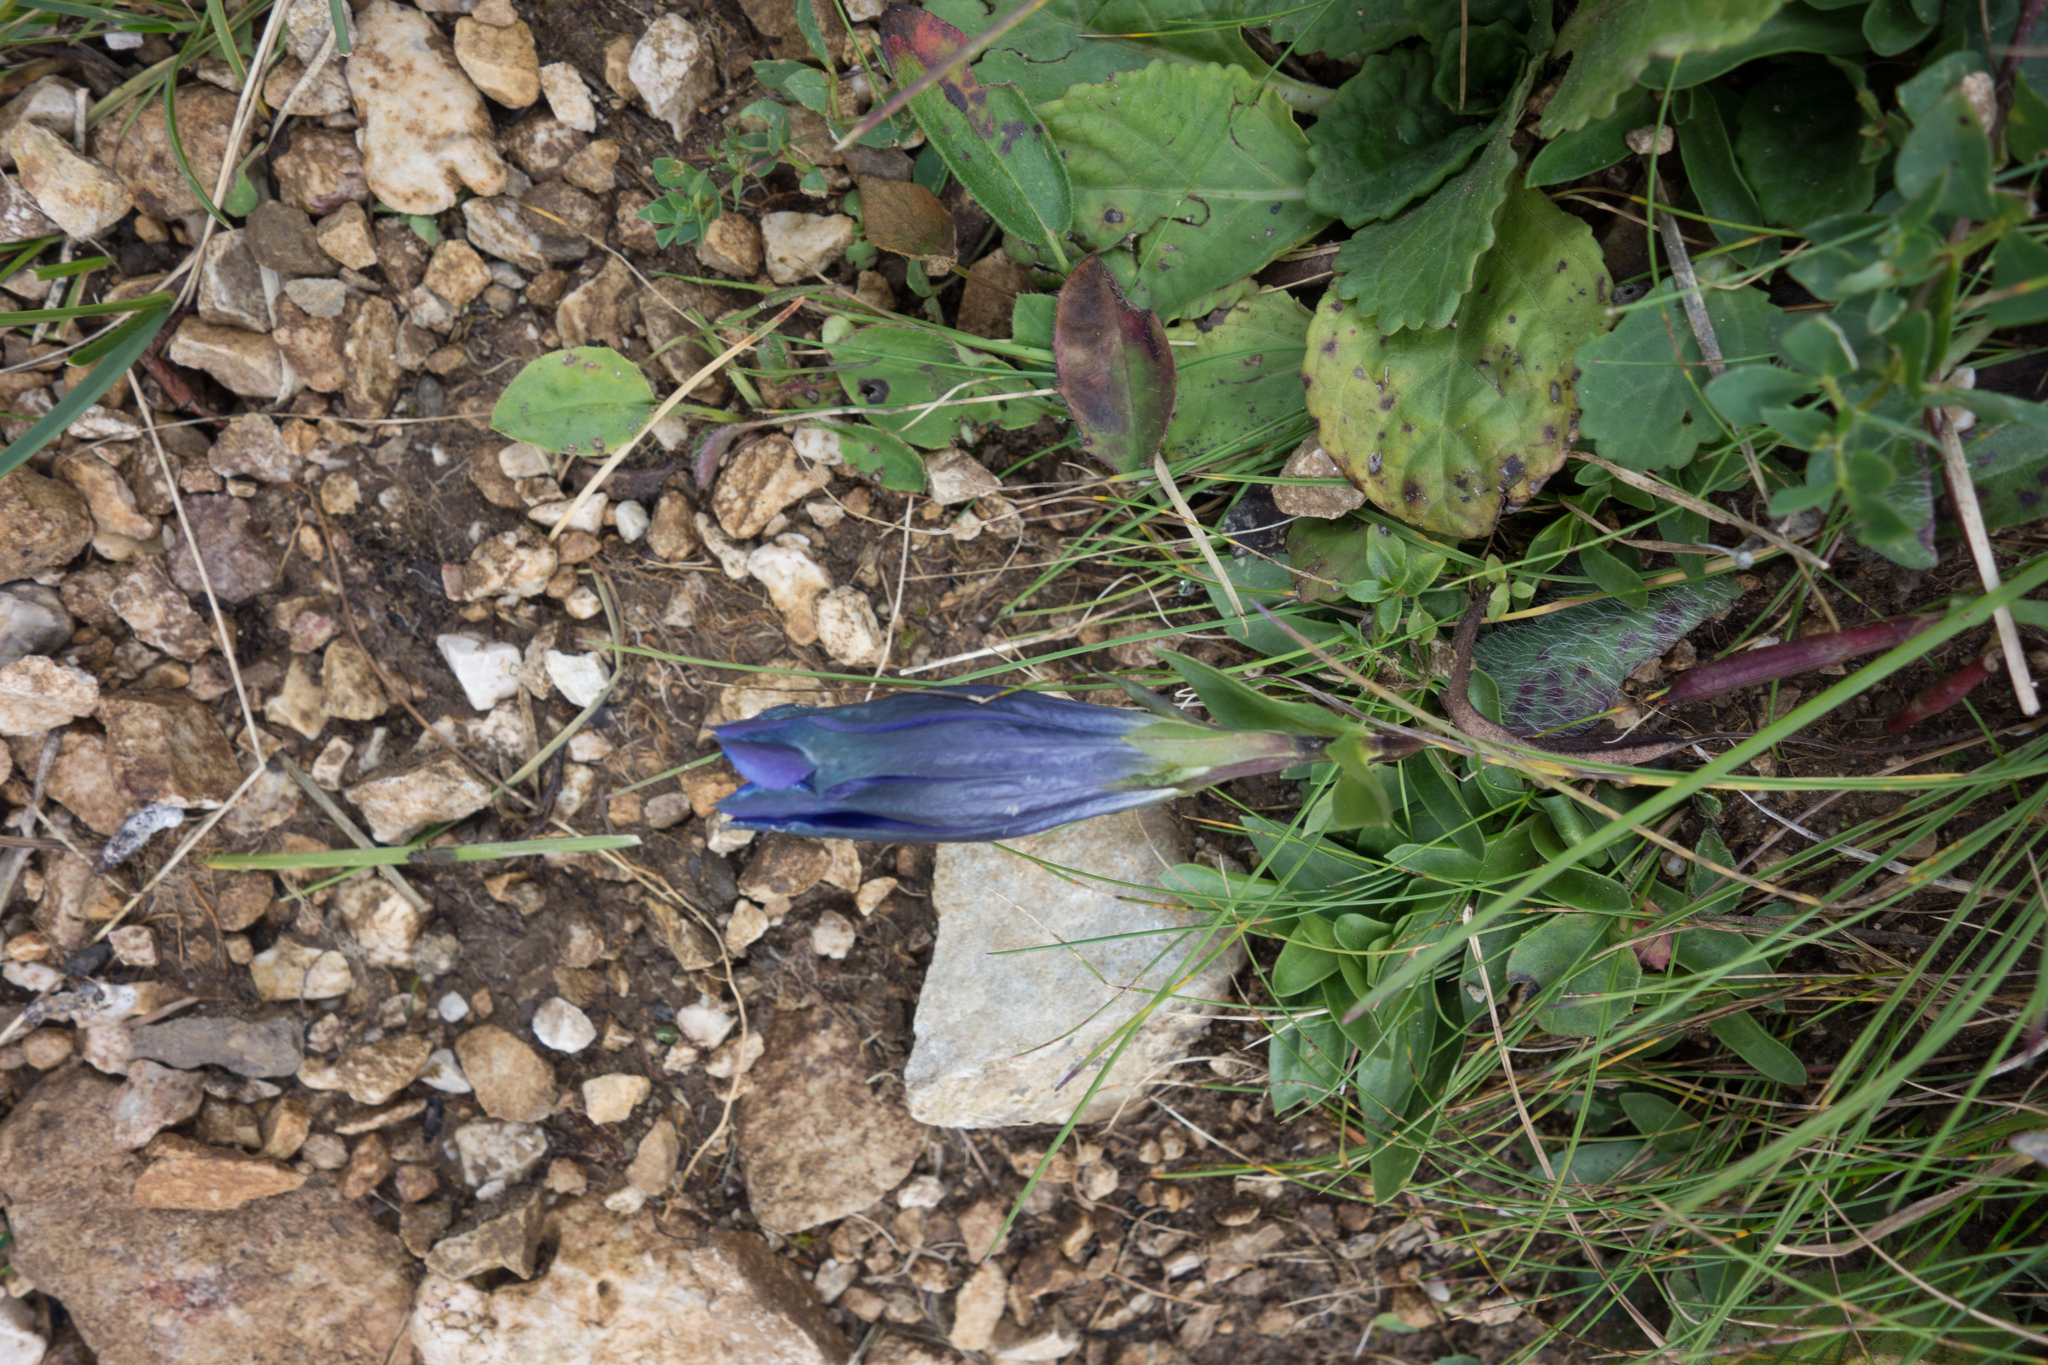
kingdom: Plantae
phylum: Tracheophyta
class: Magnoliopsida
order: Gentianales
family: Gentianaceae
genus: Gentiana
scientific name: Gentiana clusii
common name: Trumpet gentian
